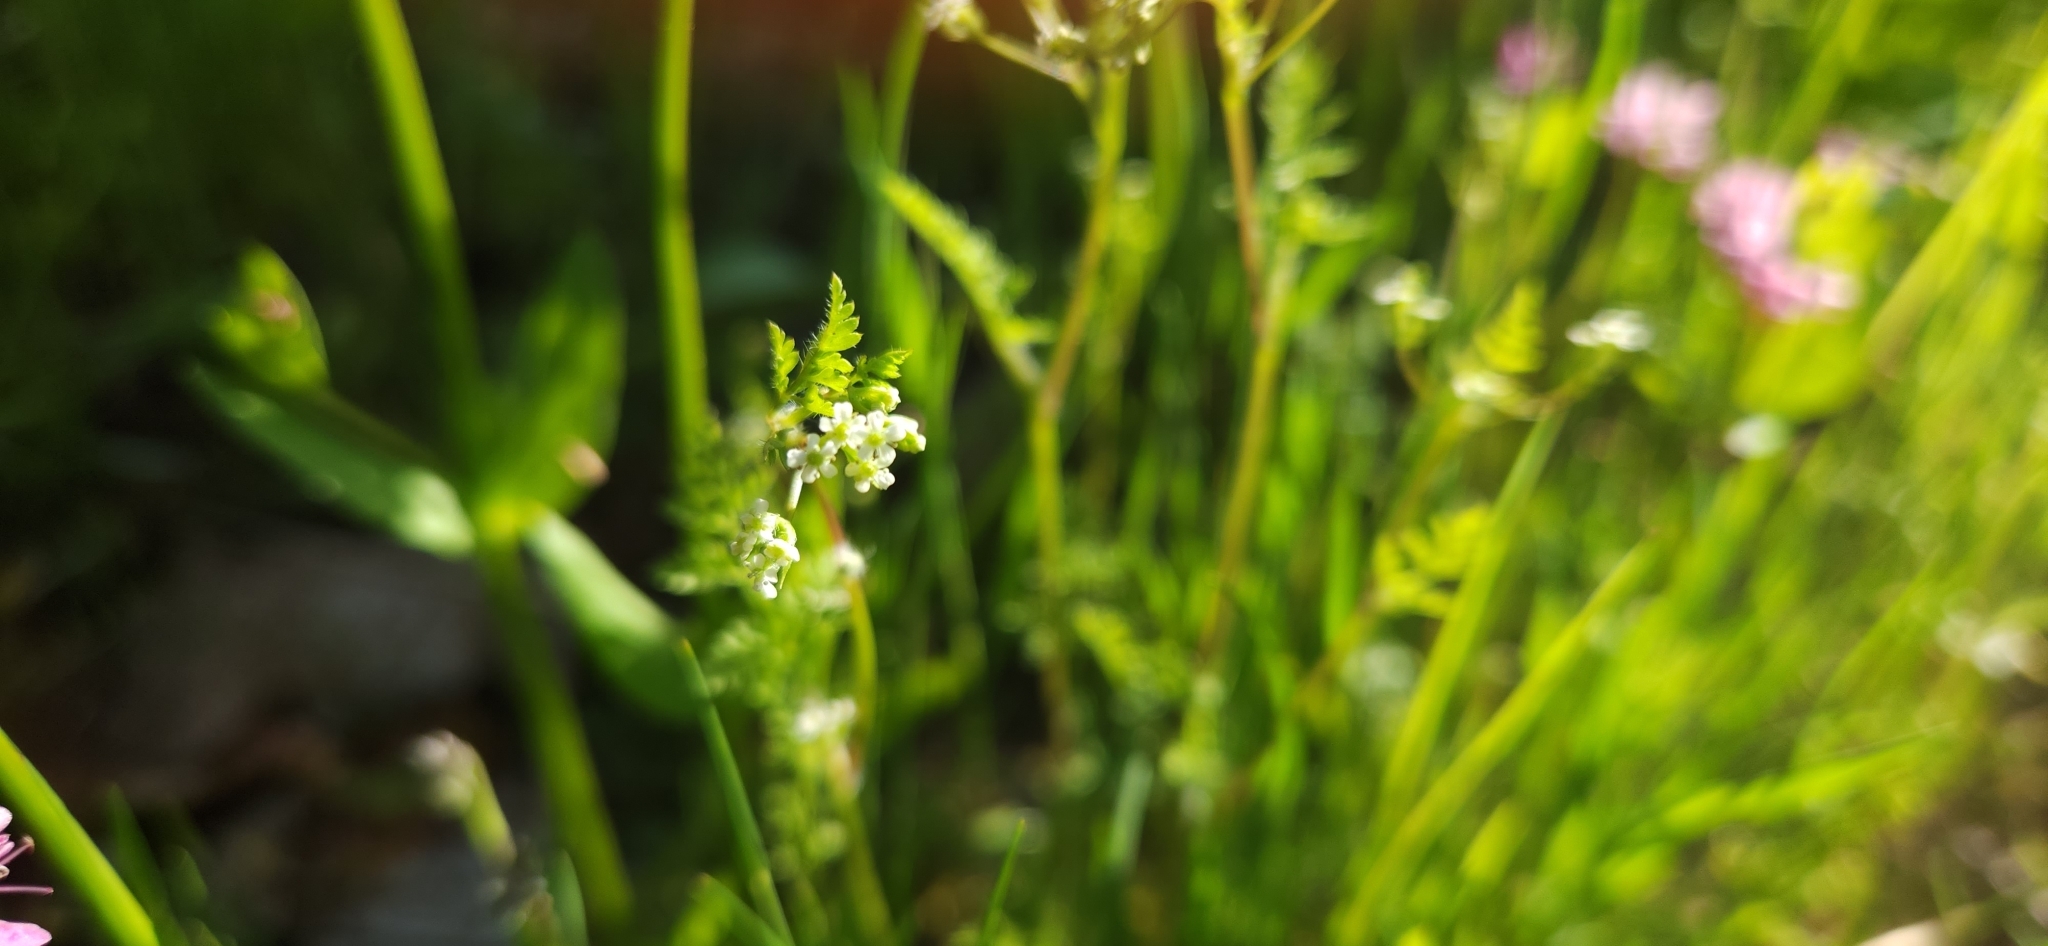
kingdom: Plantae
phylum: Tracheophyta
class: Magnoliopsida
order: Apiales
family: Apiaceae
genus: Anthriscus
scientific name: Anthriscus caucalis
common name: Bur chervil
